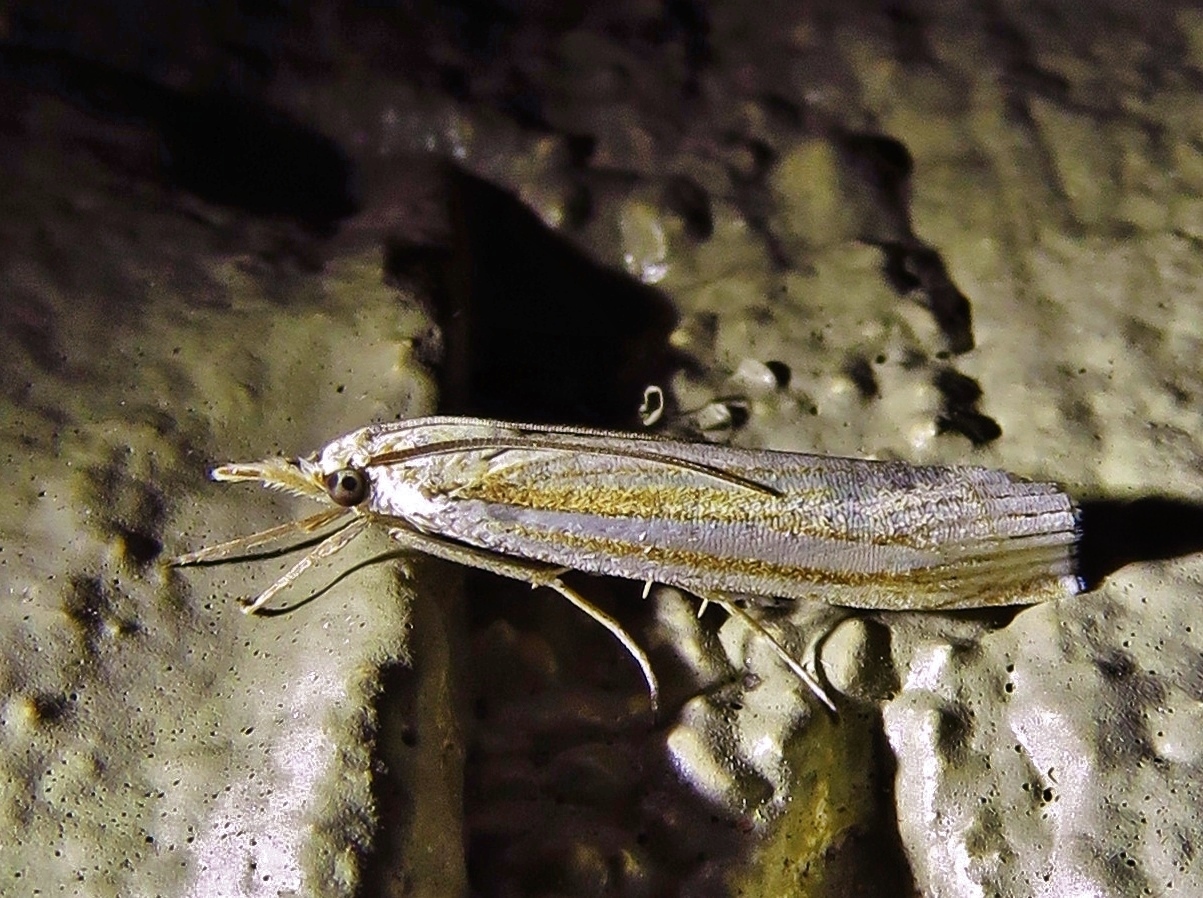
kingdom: Animalia
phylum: Arthropoda
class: Insecta
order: Lepidoptera
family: Crambidae
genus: Crambus
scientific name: Crambus laqueatellus
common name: Eastern grass-veneer
